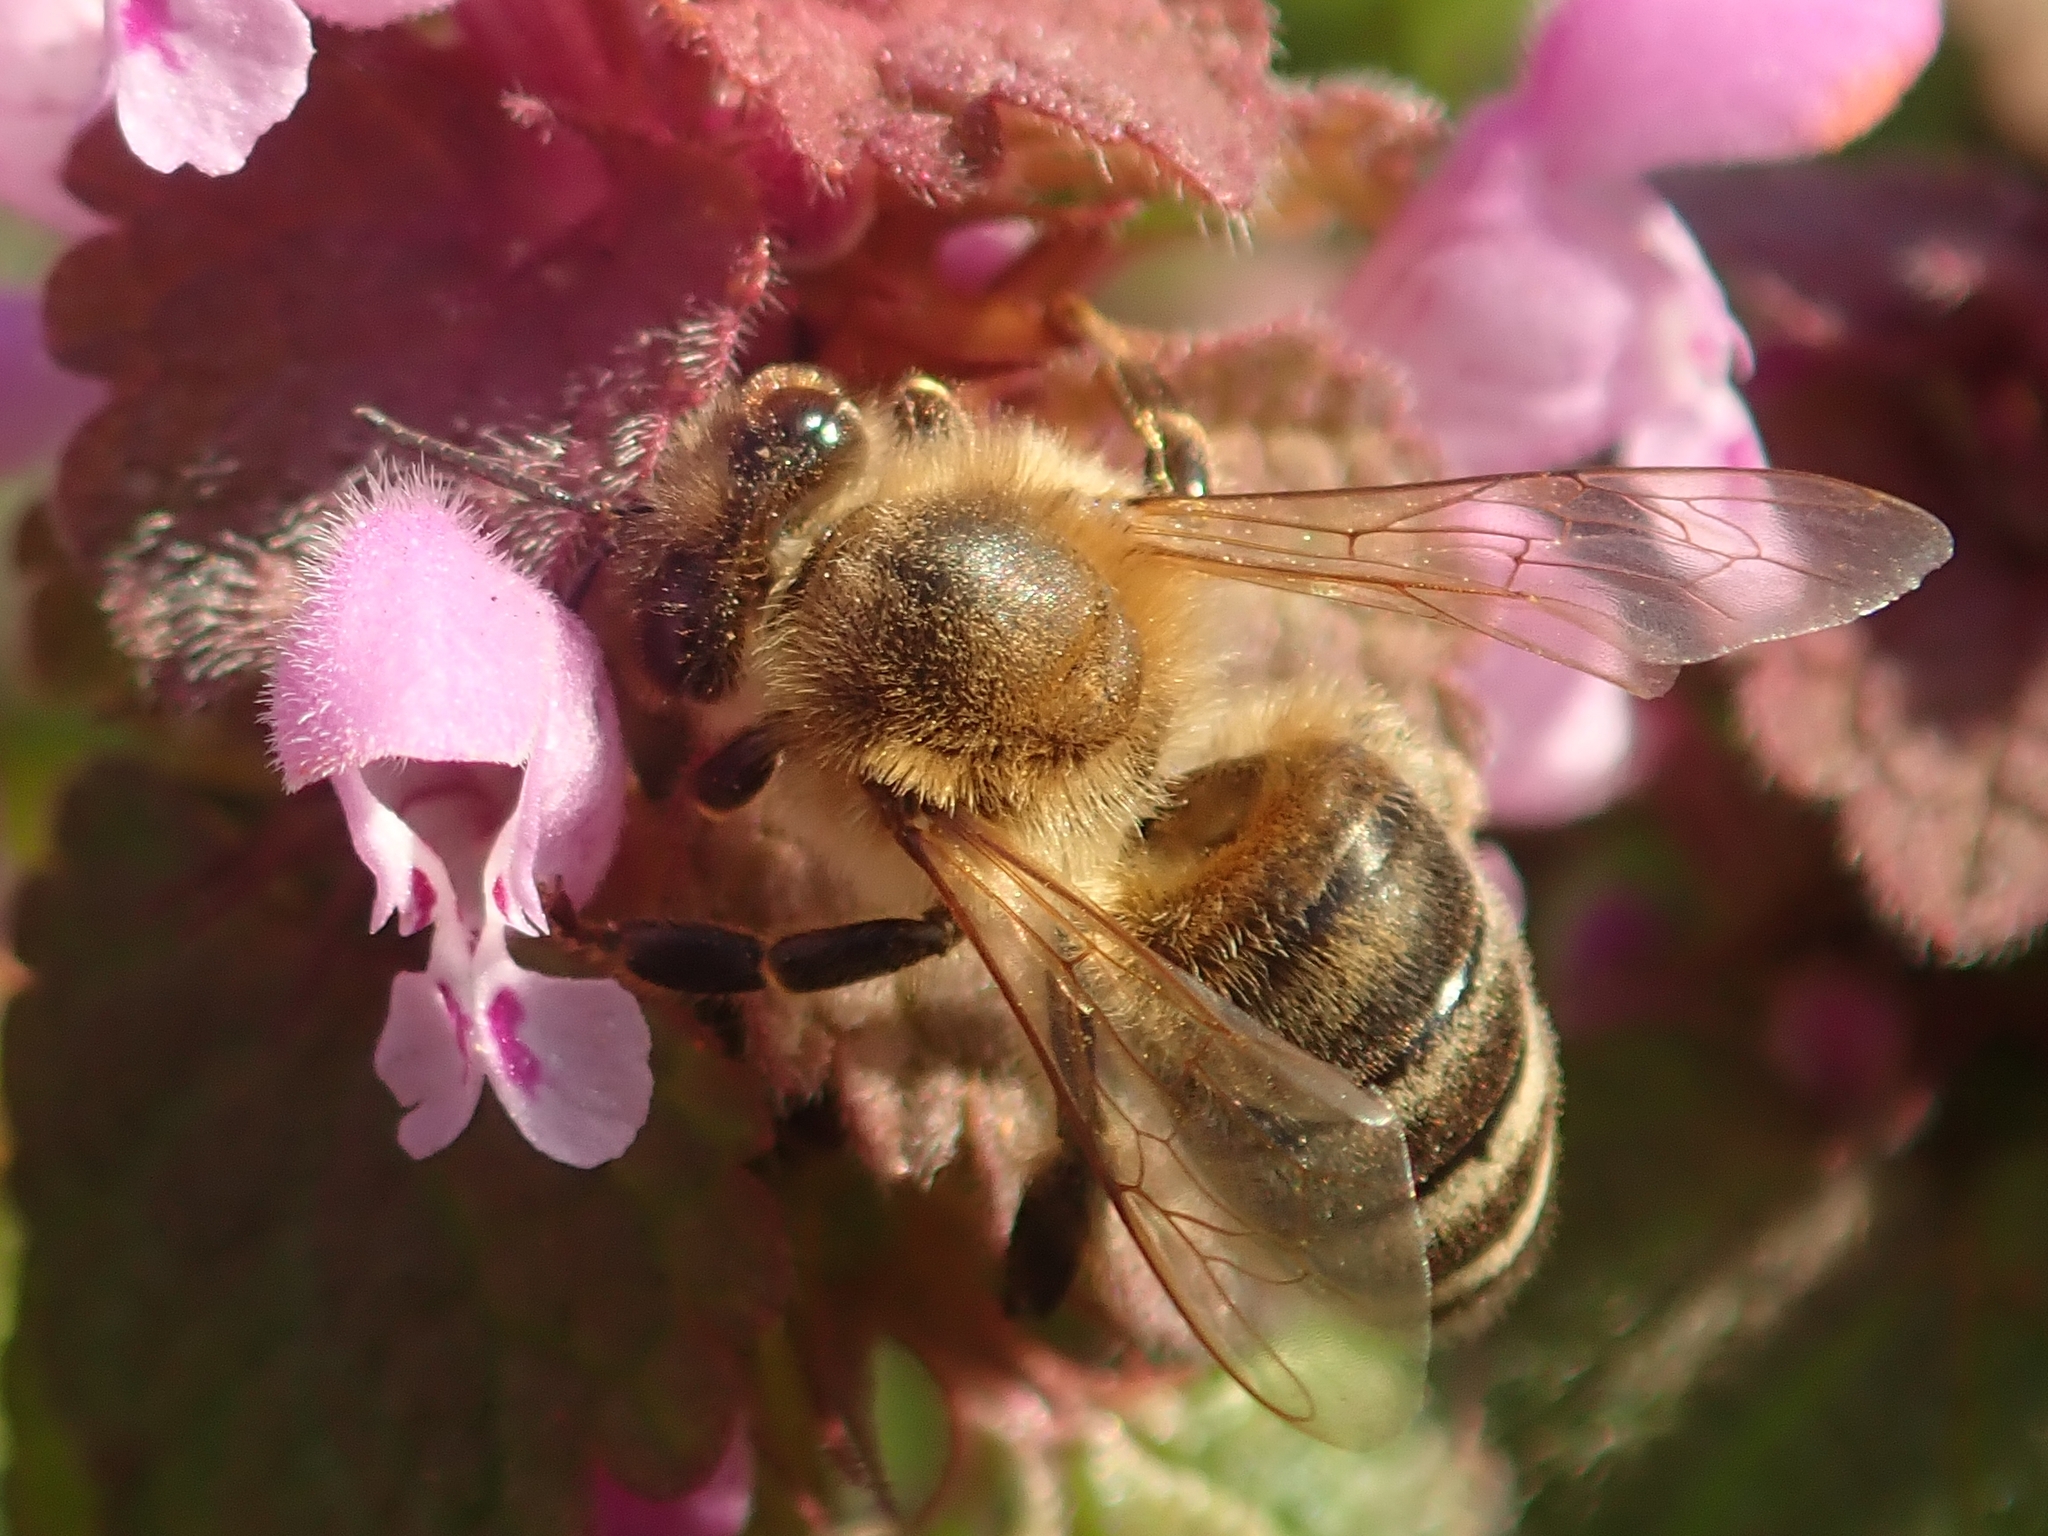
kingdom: Animalia
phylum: Arthropoda
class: Insecta
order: Hymenoptera
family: Apidae
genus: Apis
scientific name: Apis mellifera
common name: Honey bee
